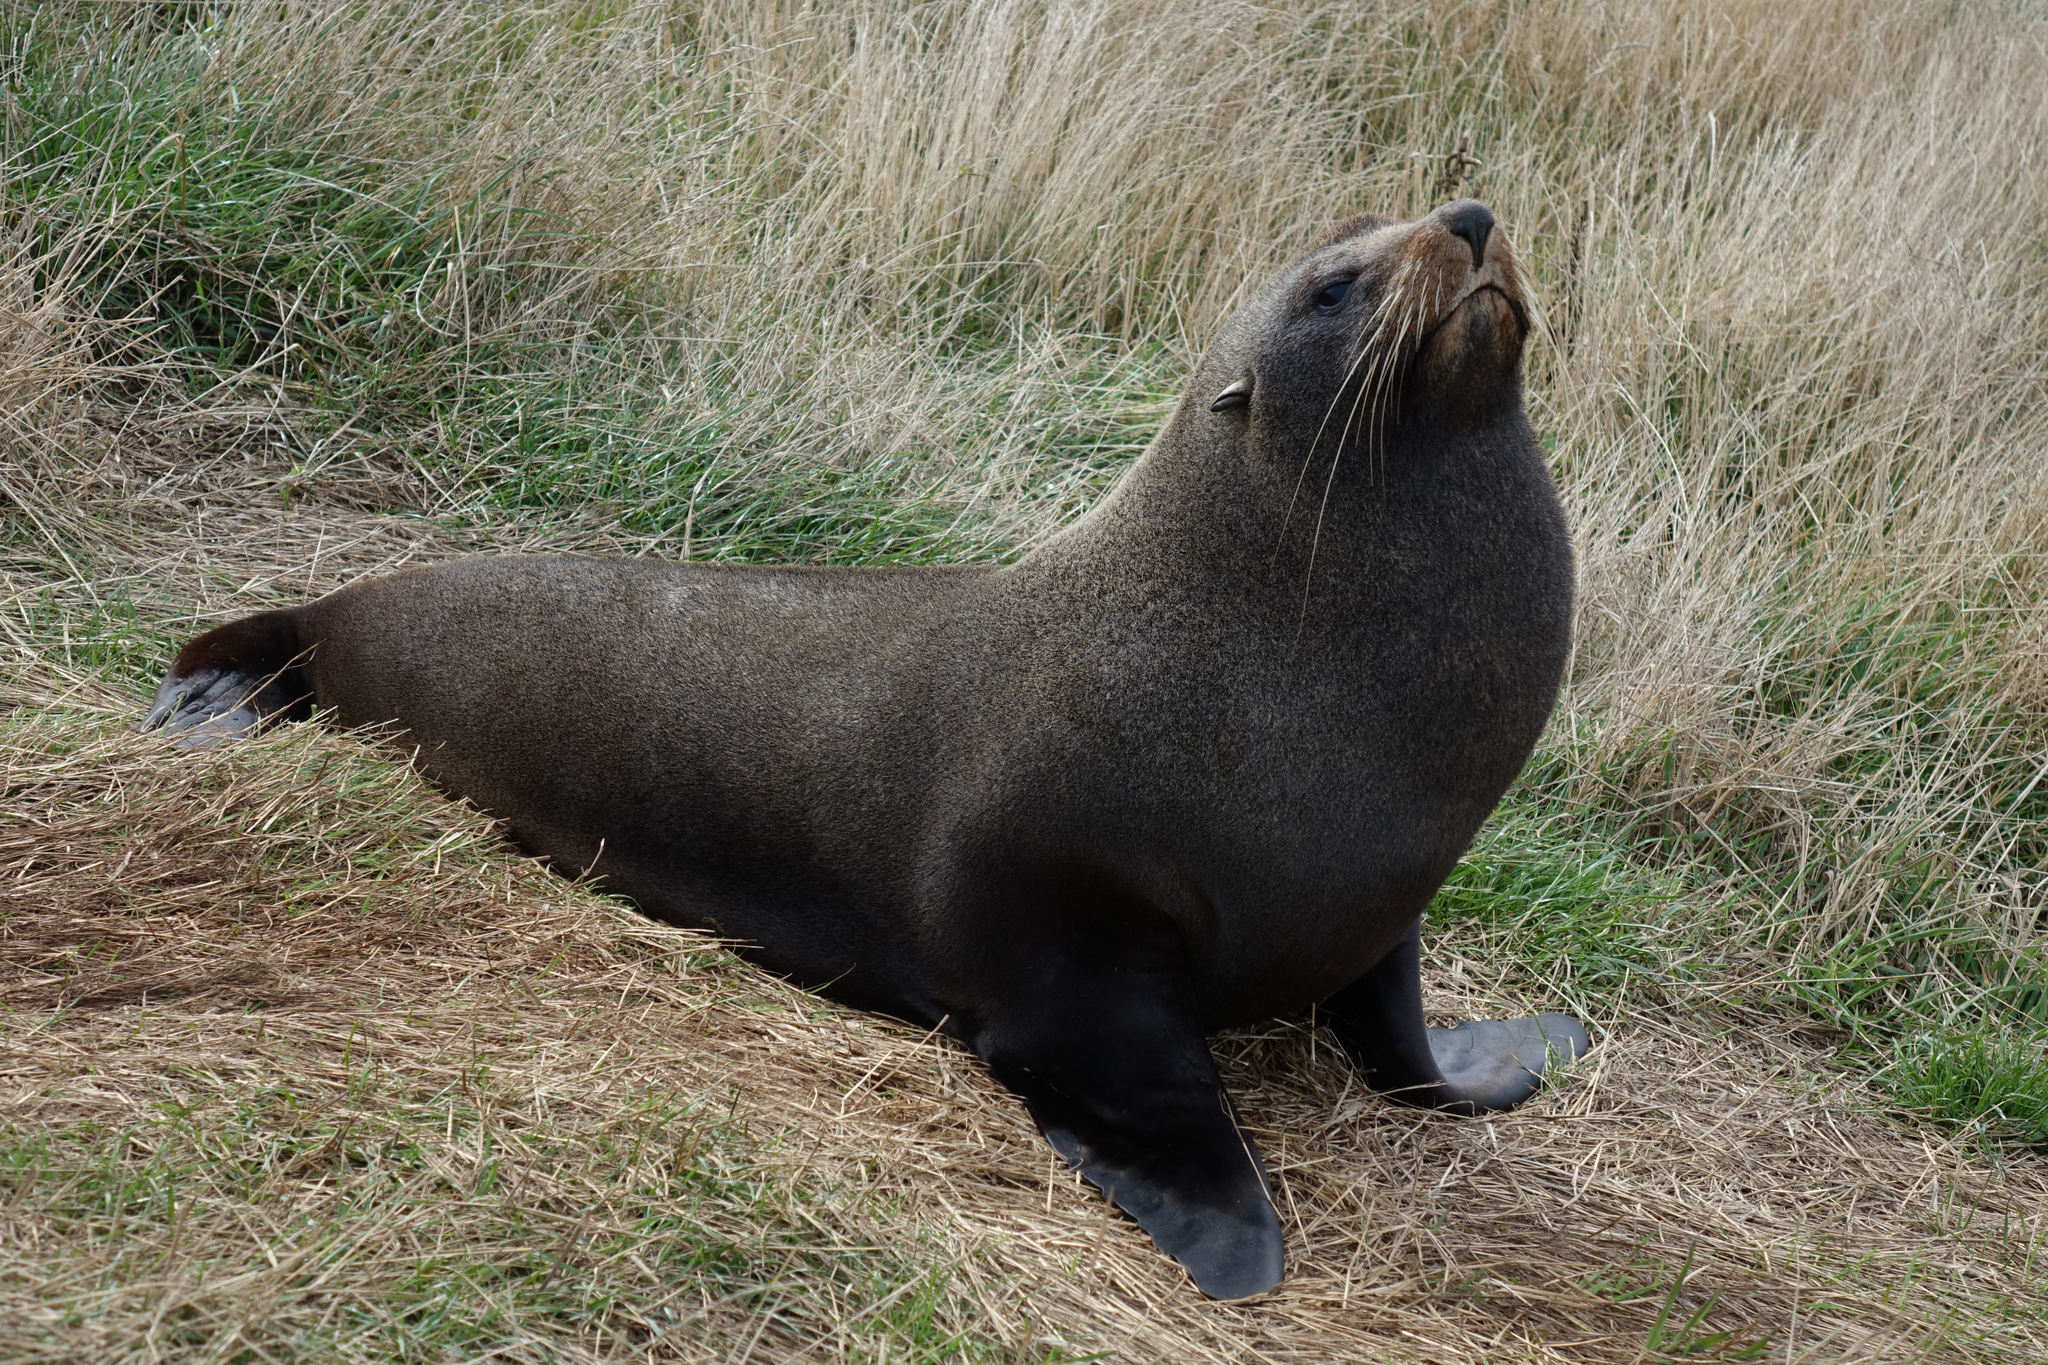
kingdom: Animalia
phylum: Chordata
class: Mammalia
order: Carnivora
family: Otariidae
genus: Arctocephalus
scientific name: Arctocephalus forsteri
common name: New zealand fur seal
